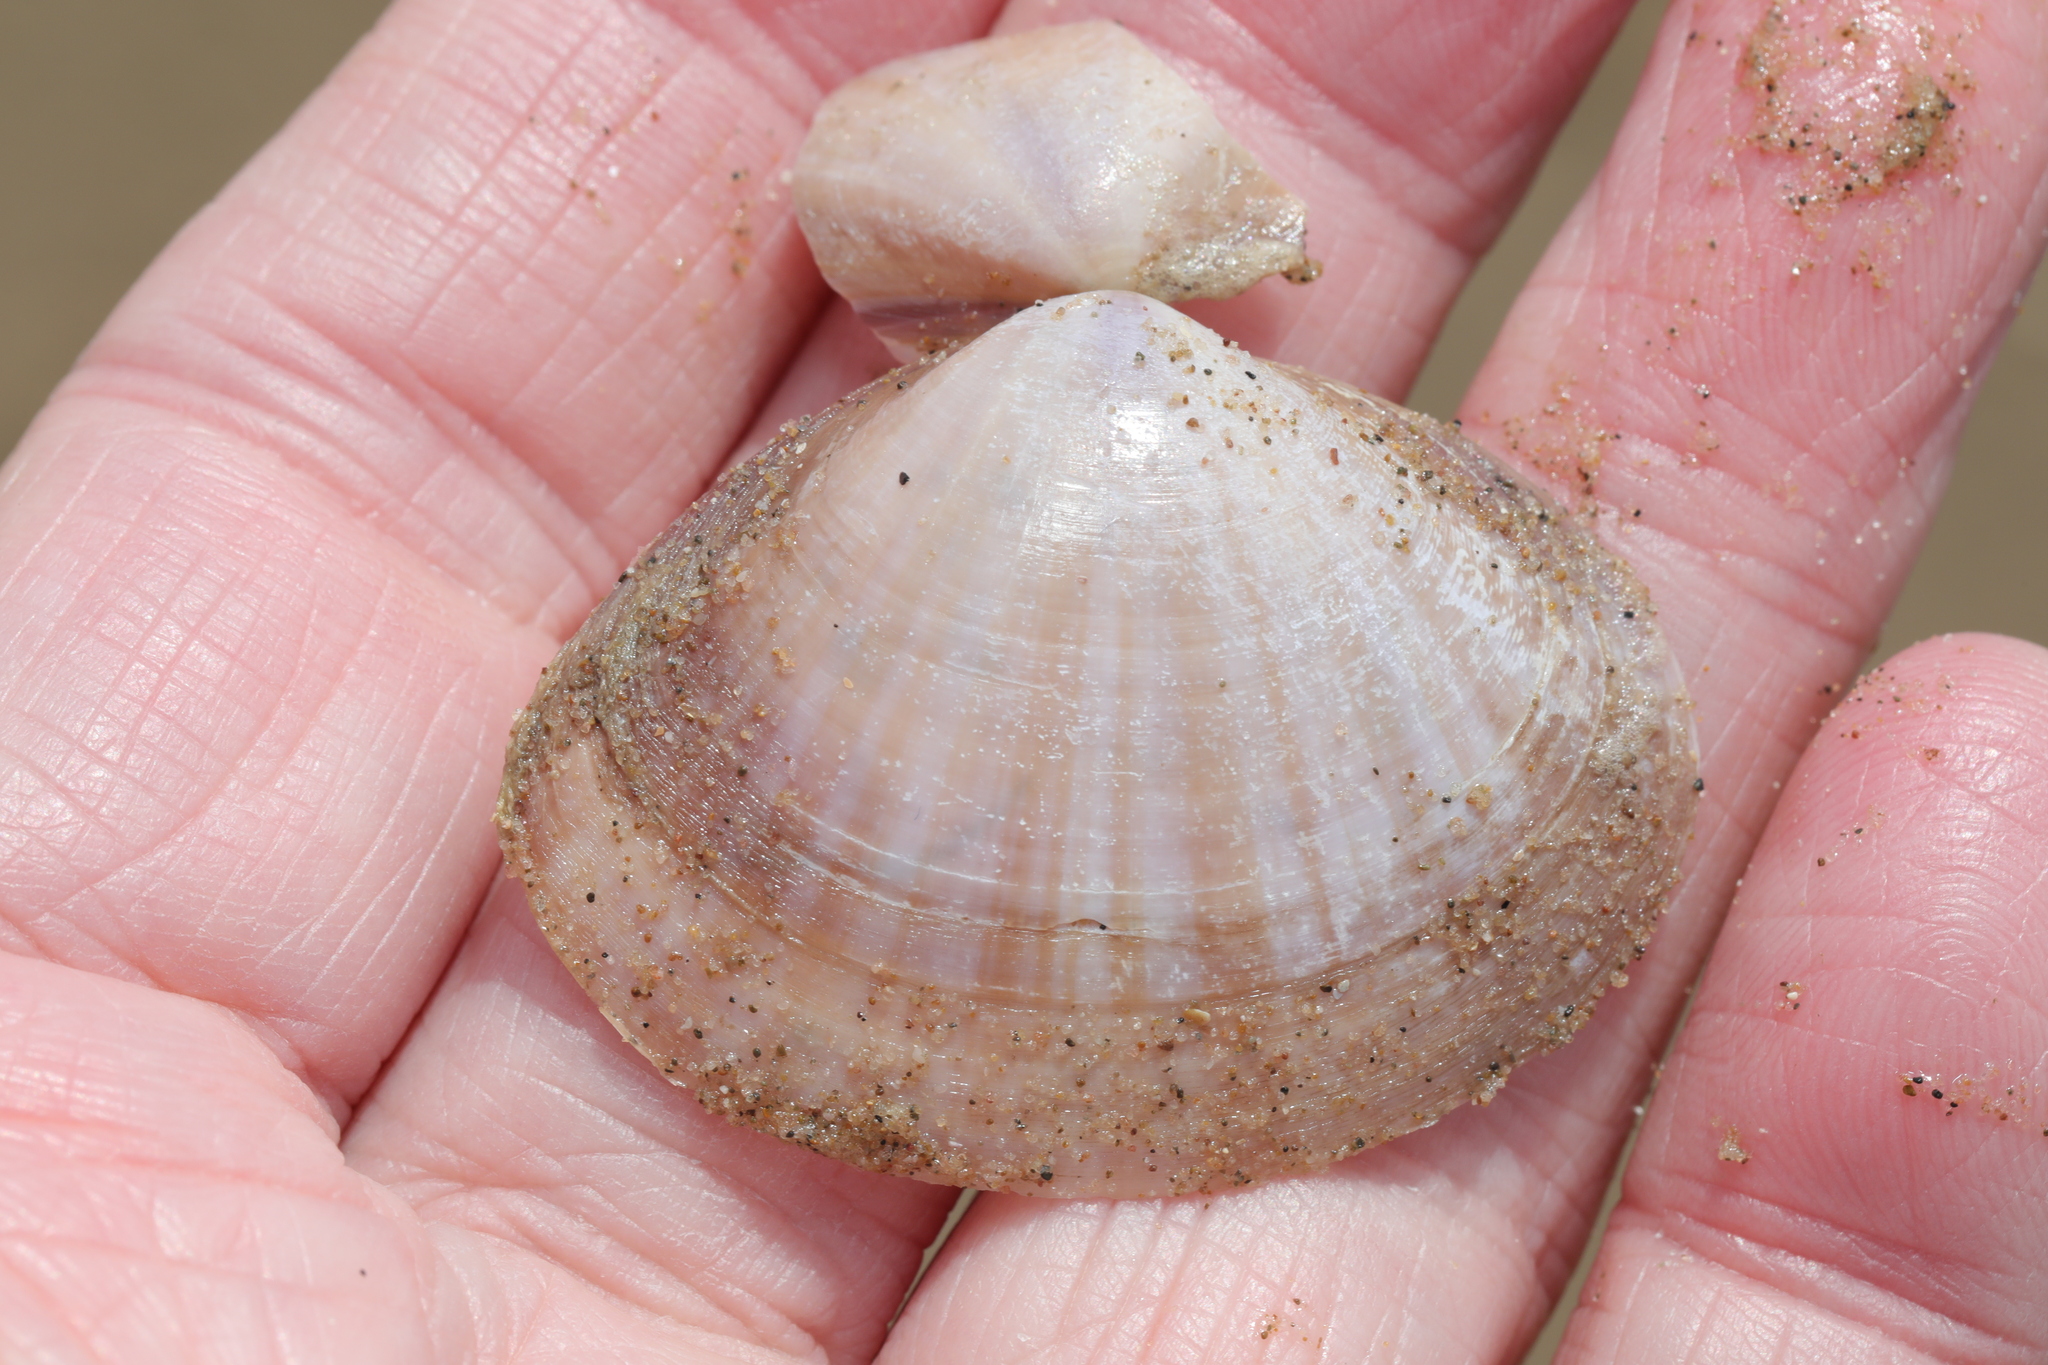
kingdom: Animalia
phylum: Mollusca
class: Bivalvia
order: Venerida
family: Mactridae
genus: Mactra
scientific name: Mactra stultorum
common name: Rayed trough shell
